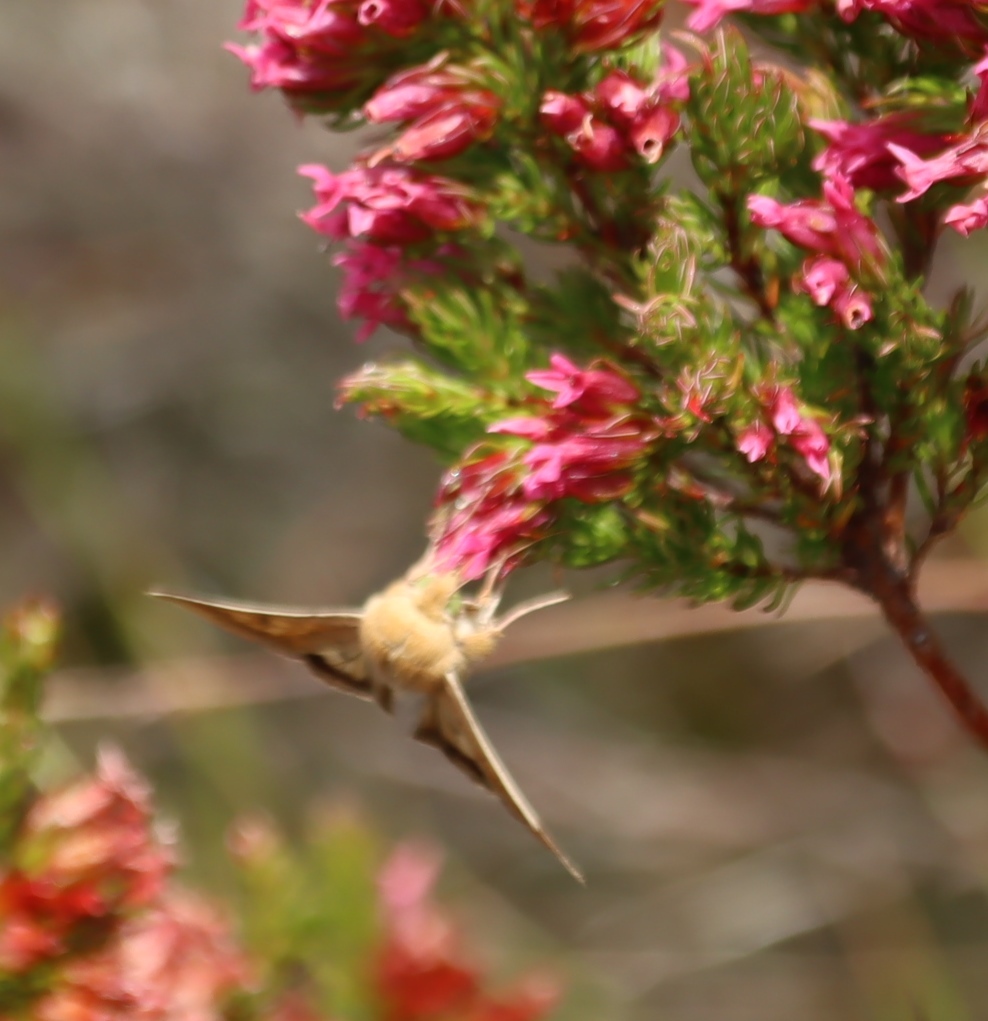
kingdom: Animalia
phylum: Arthropoda
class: Insecta
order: Lepidoptera
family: Noctuidae
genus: Helicoverpa
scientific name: Helicoverpa armigera
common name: Cotton bollworm
